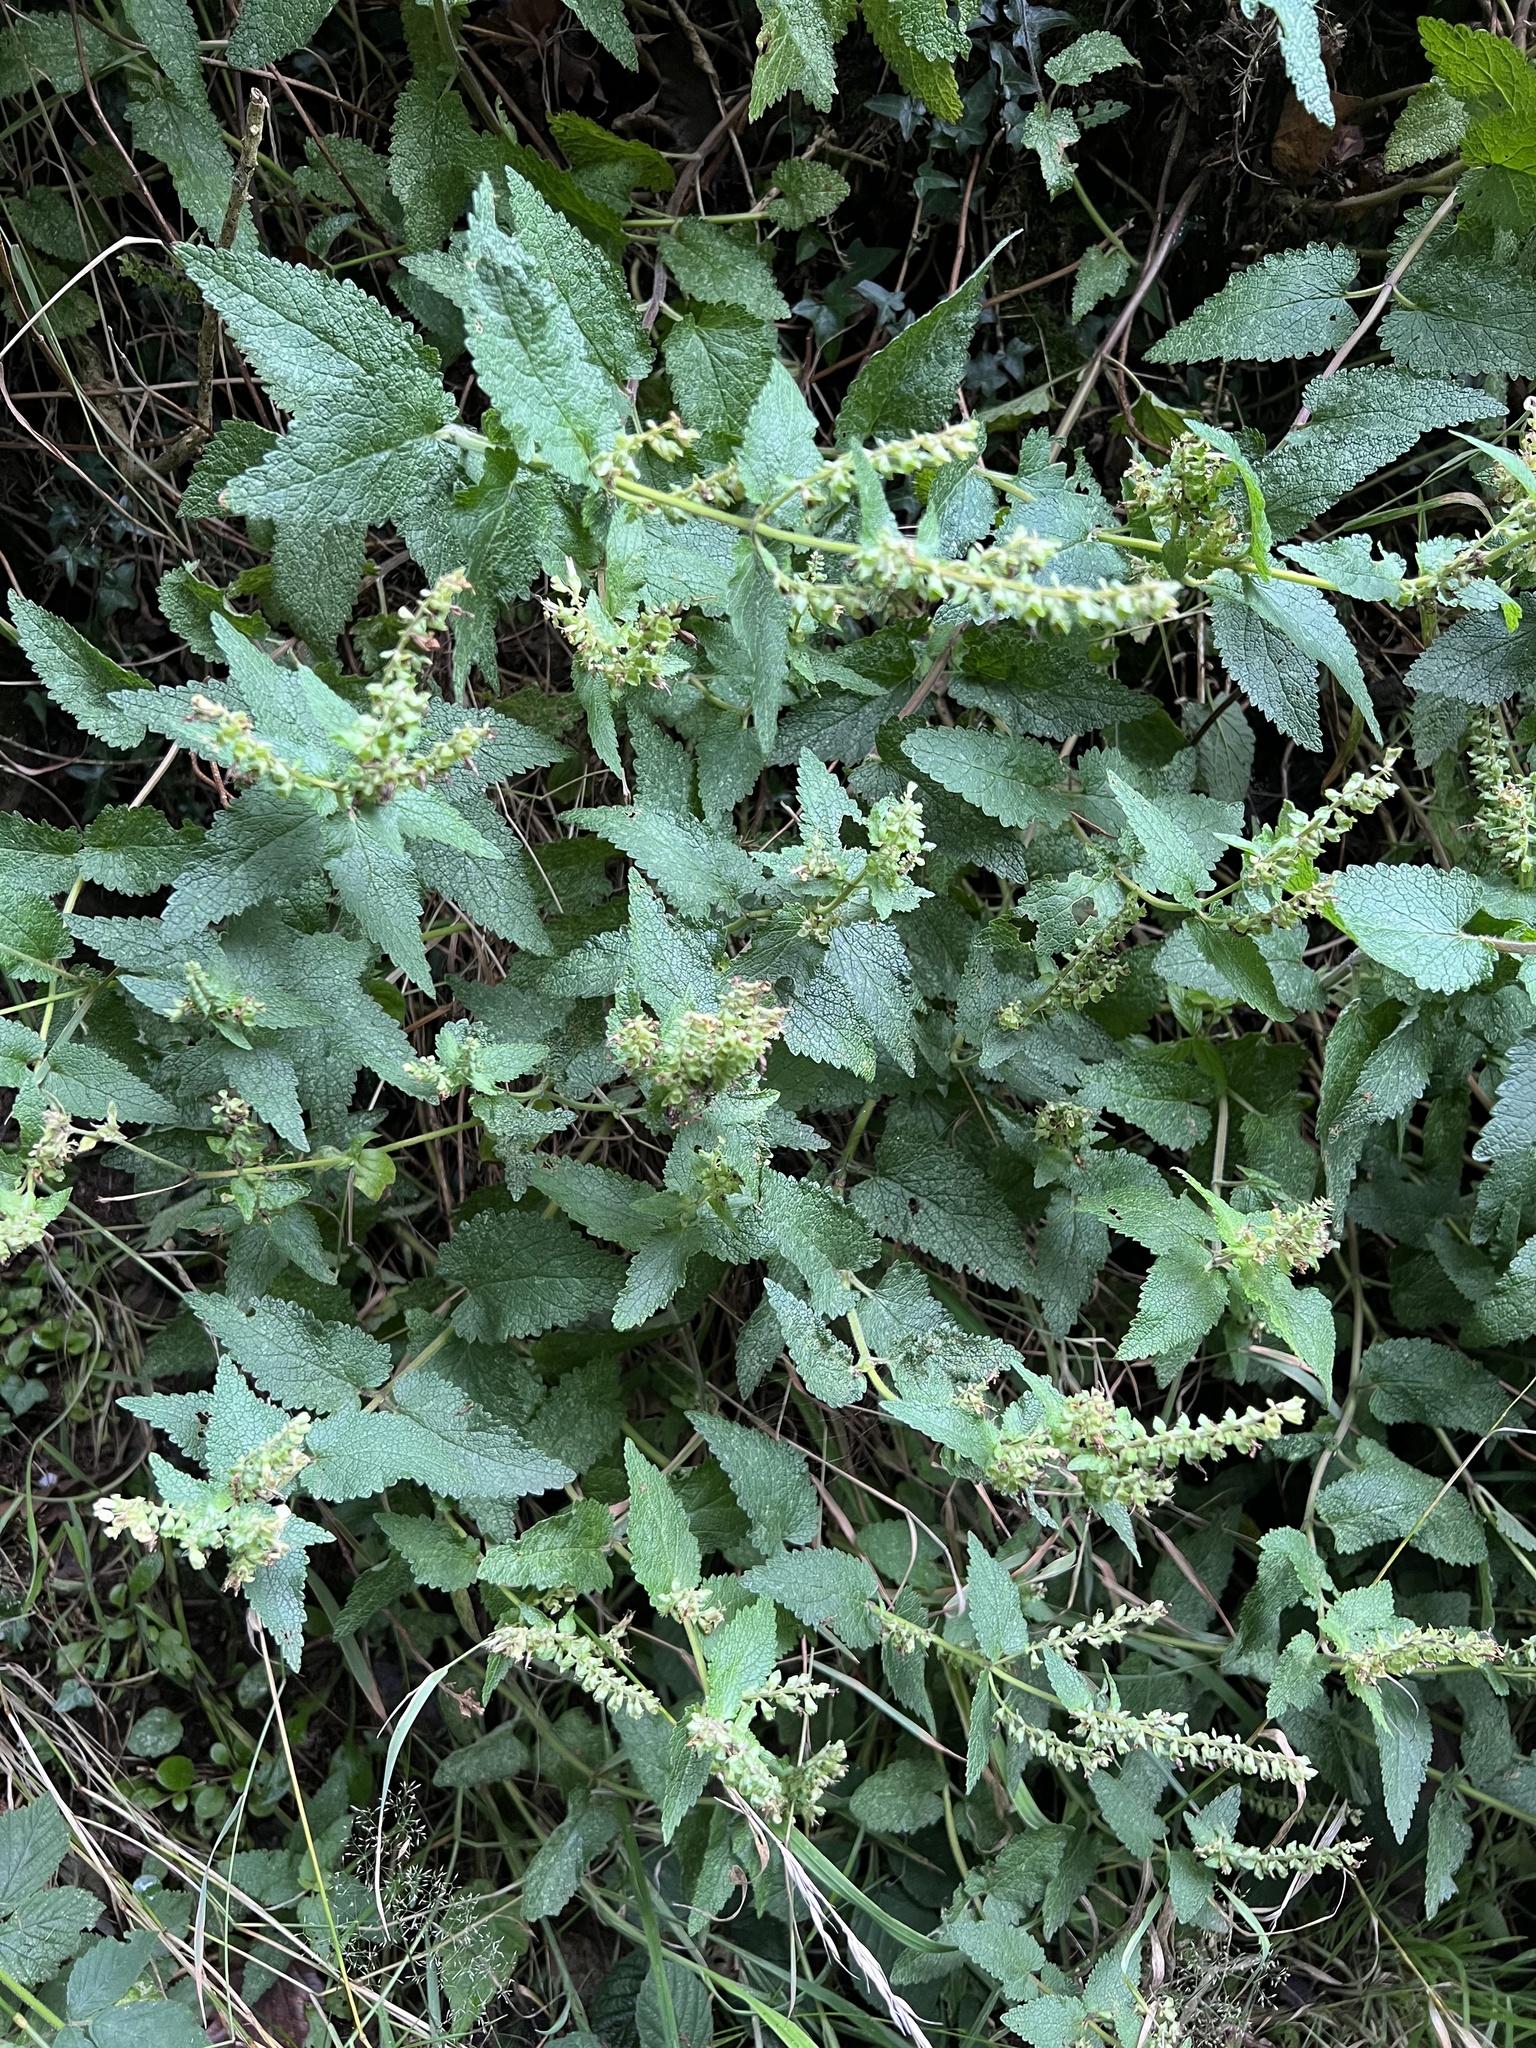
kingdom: Plantae
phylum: Tracheophyta
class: Magnoliopsida
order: Lamiales
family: Lamiaceae
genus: Teucrium
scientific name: Teucrium scorodonia
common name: Woodland germander
